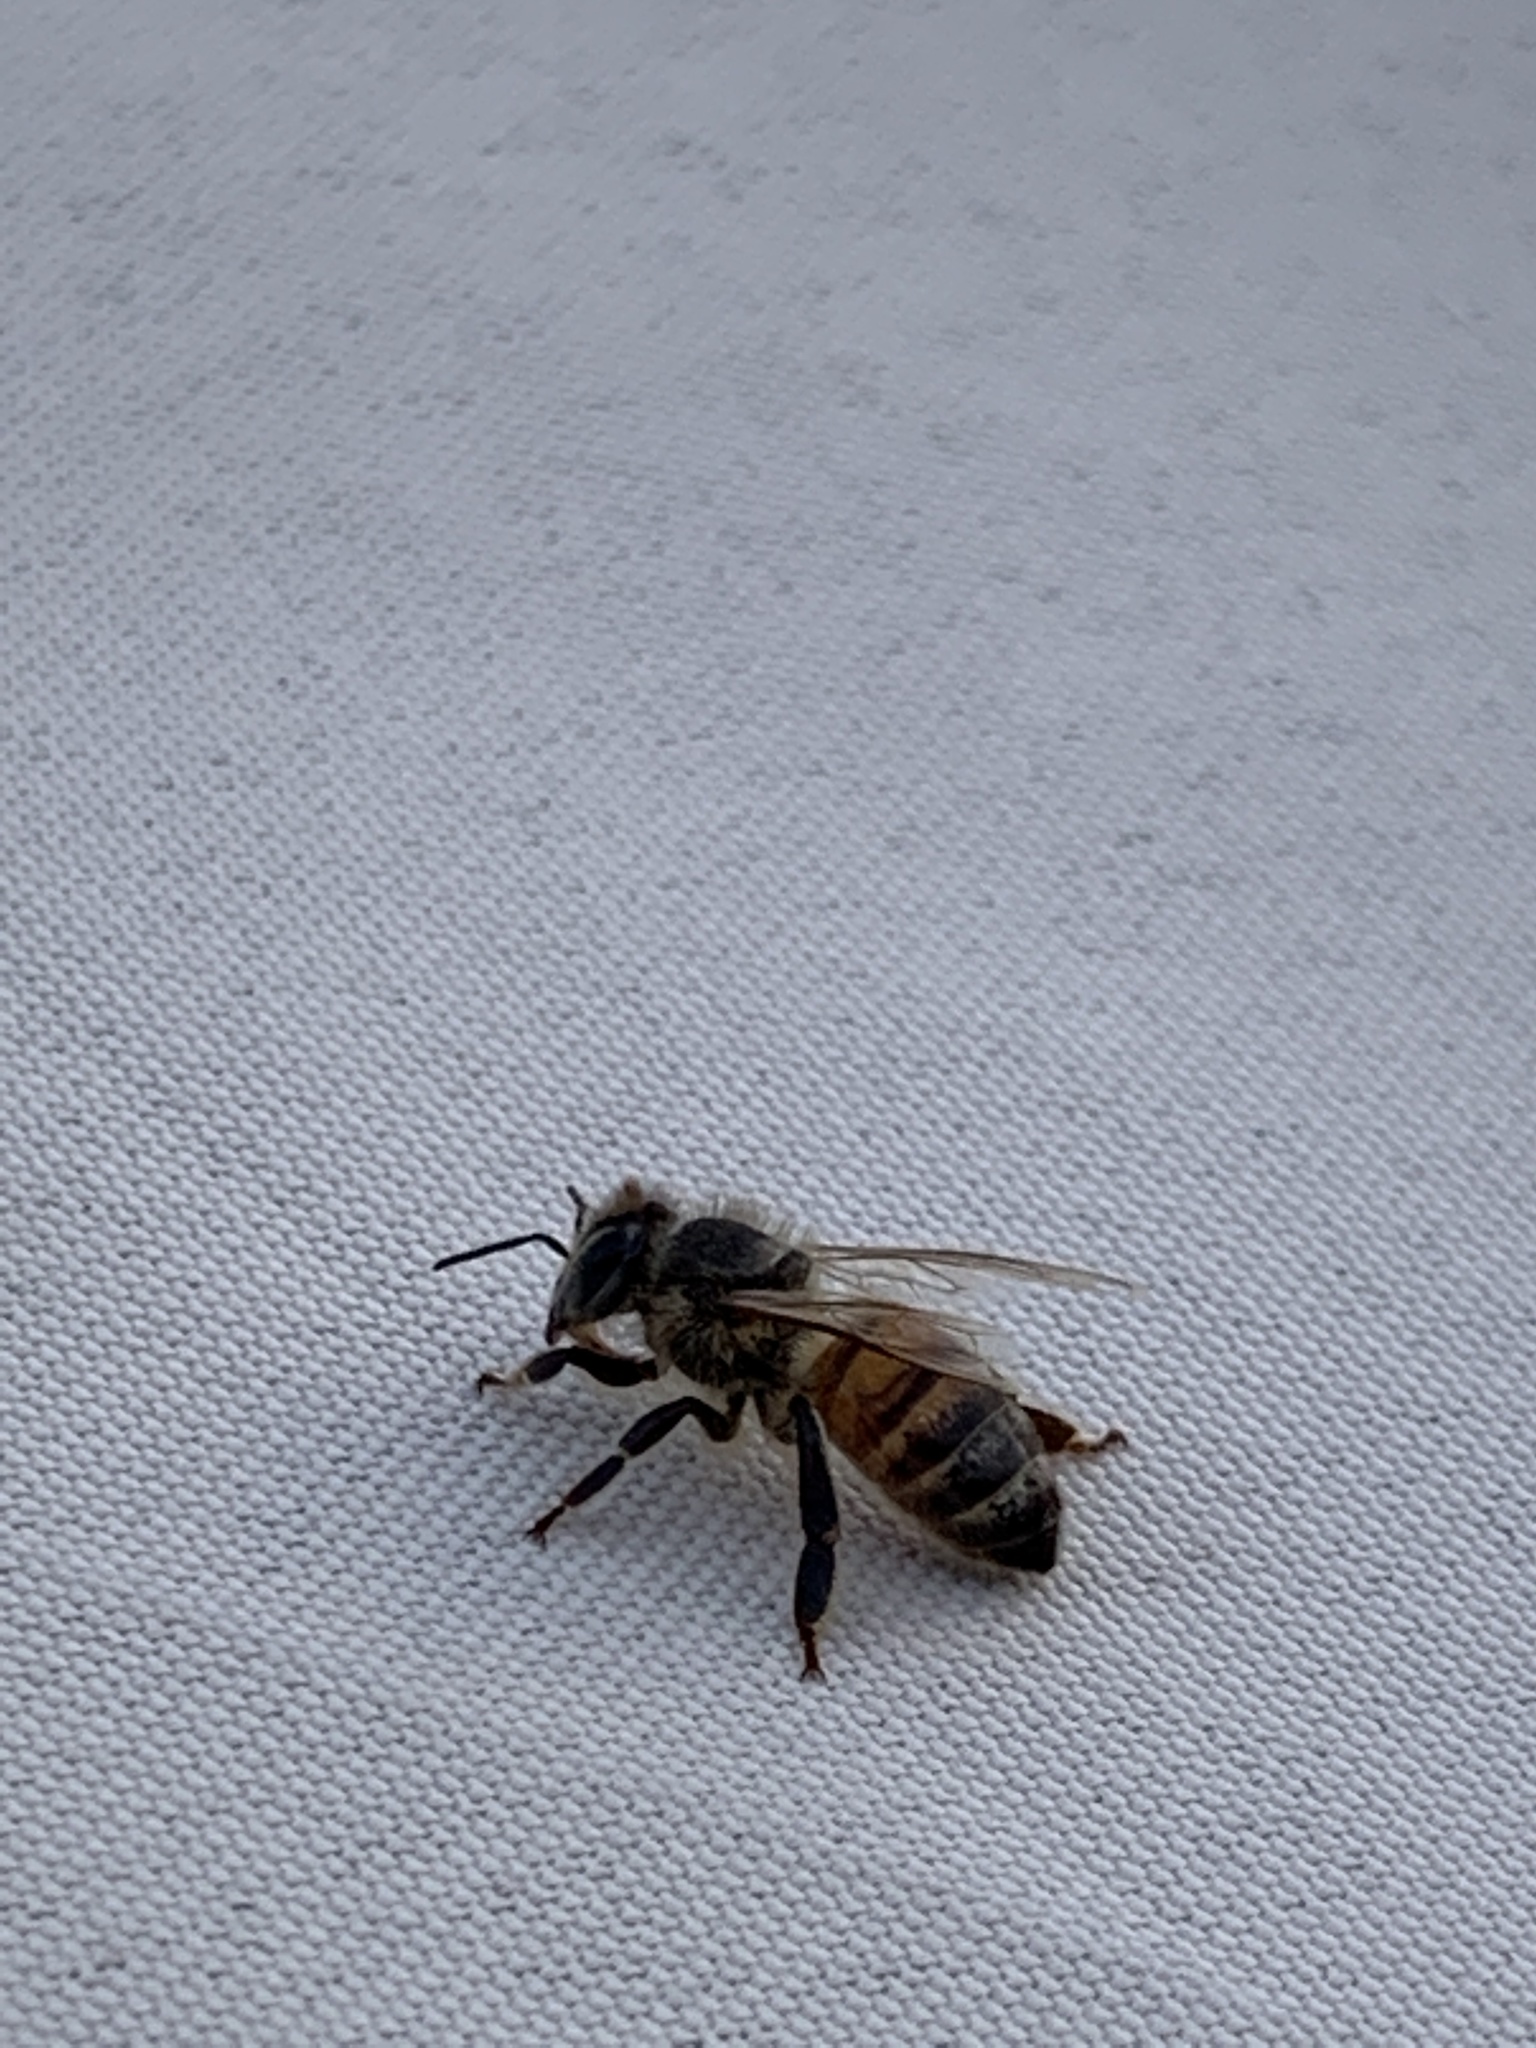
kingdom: Animalia
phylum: Arthropoda
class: Insecta
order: Hymenoptera
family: Apidae
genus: Apis
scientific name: Apis mellifera
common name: Honey bee
